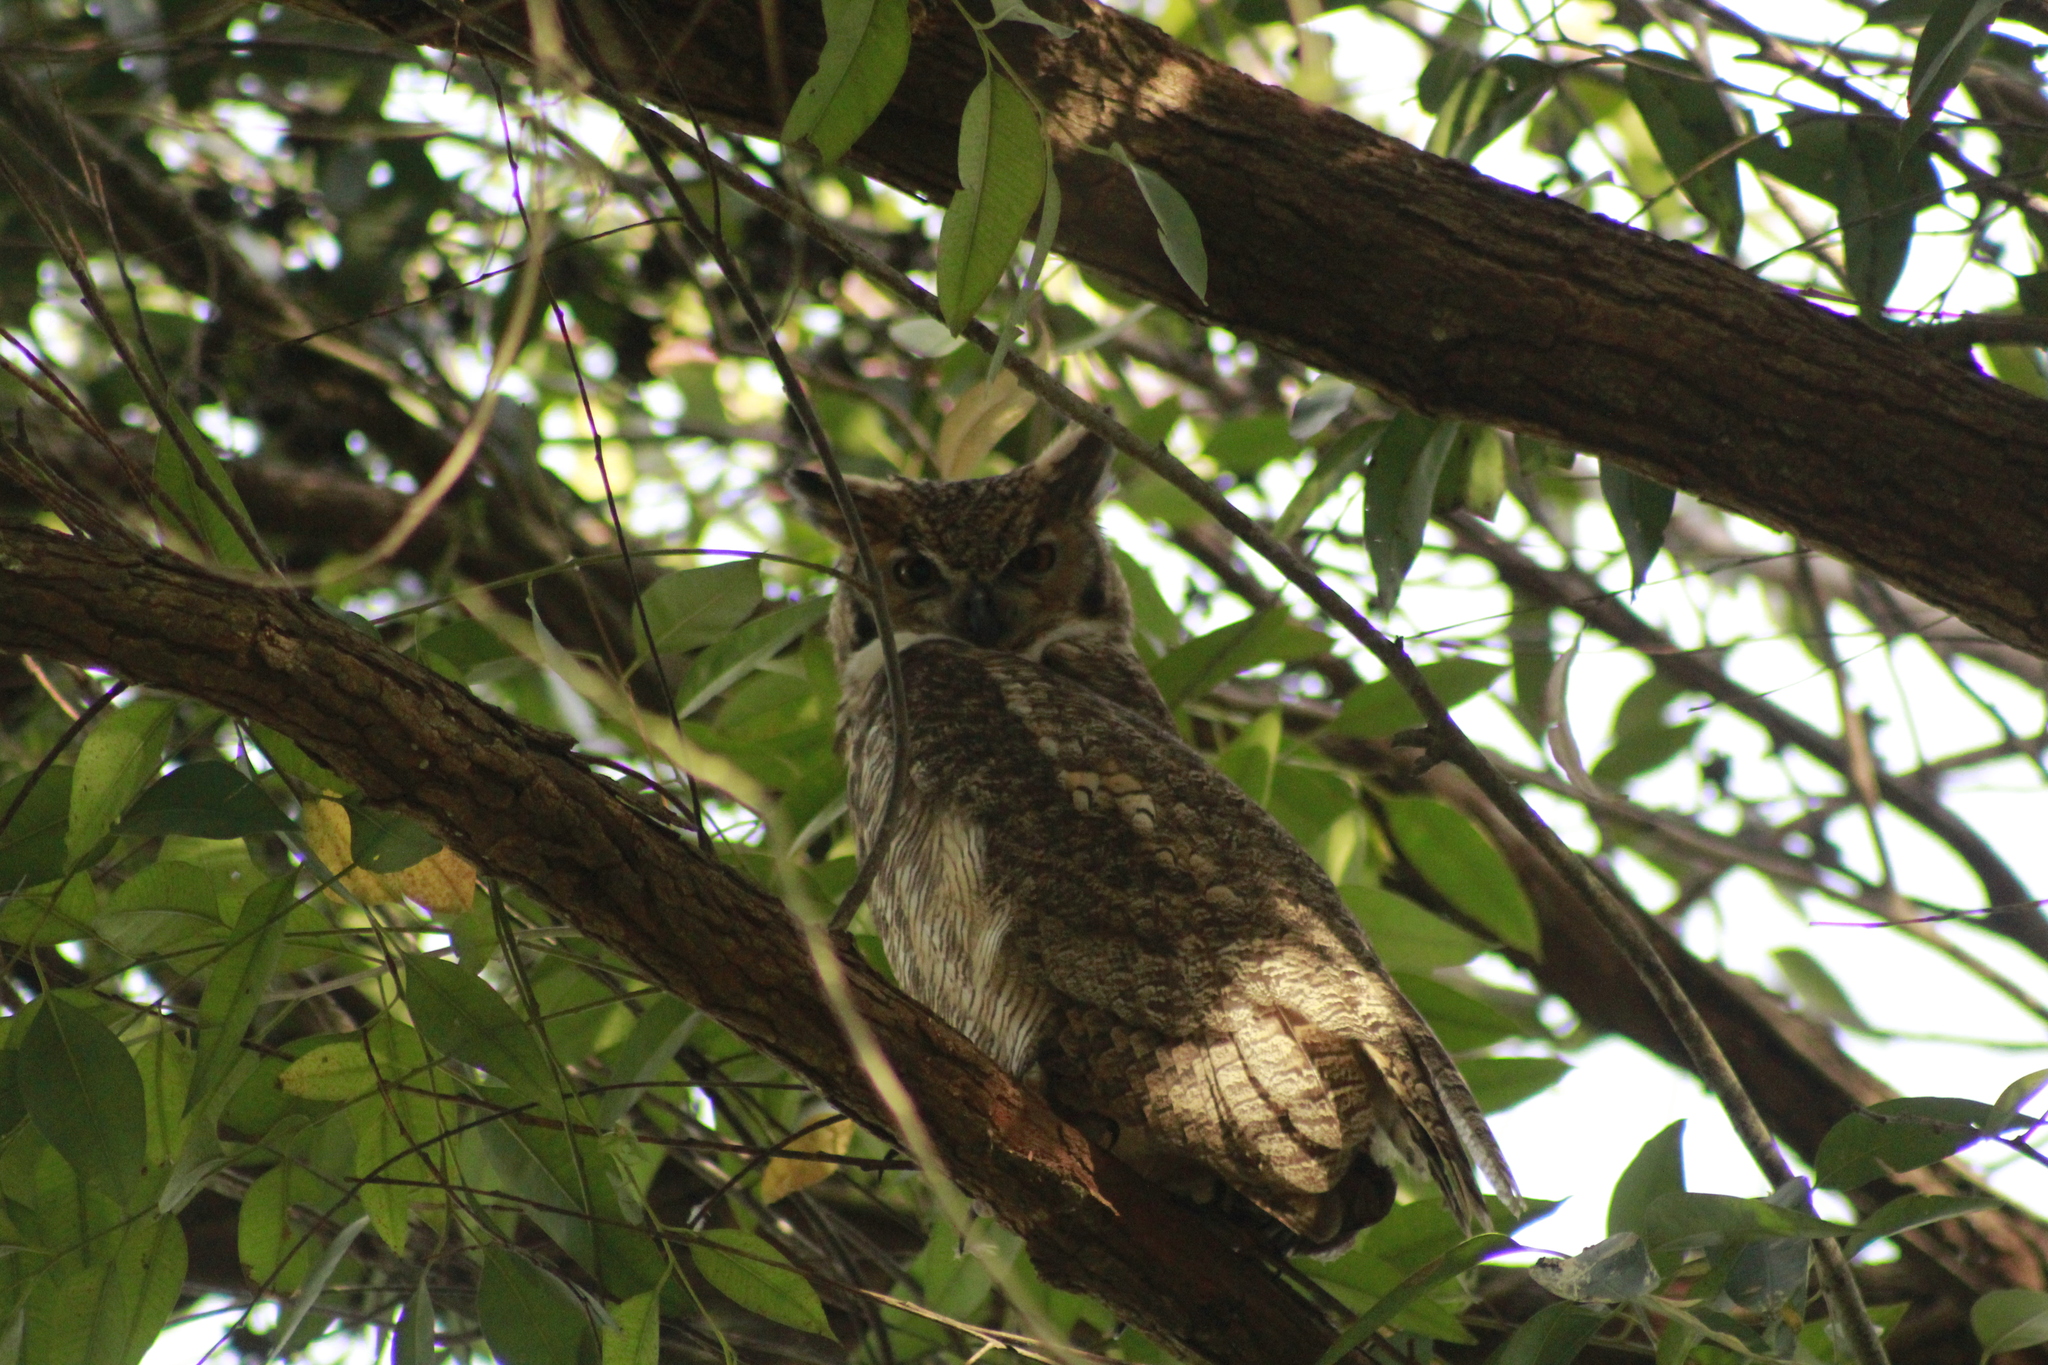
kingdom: Animalia
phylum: Chordata
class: Aves
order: Strigiformes
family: Strigidae
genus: Bubo
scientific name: Bubo virginianus
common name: Great horned owl
